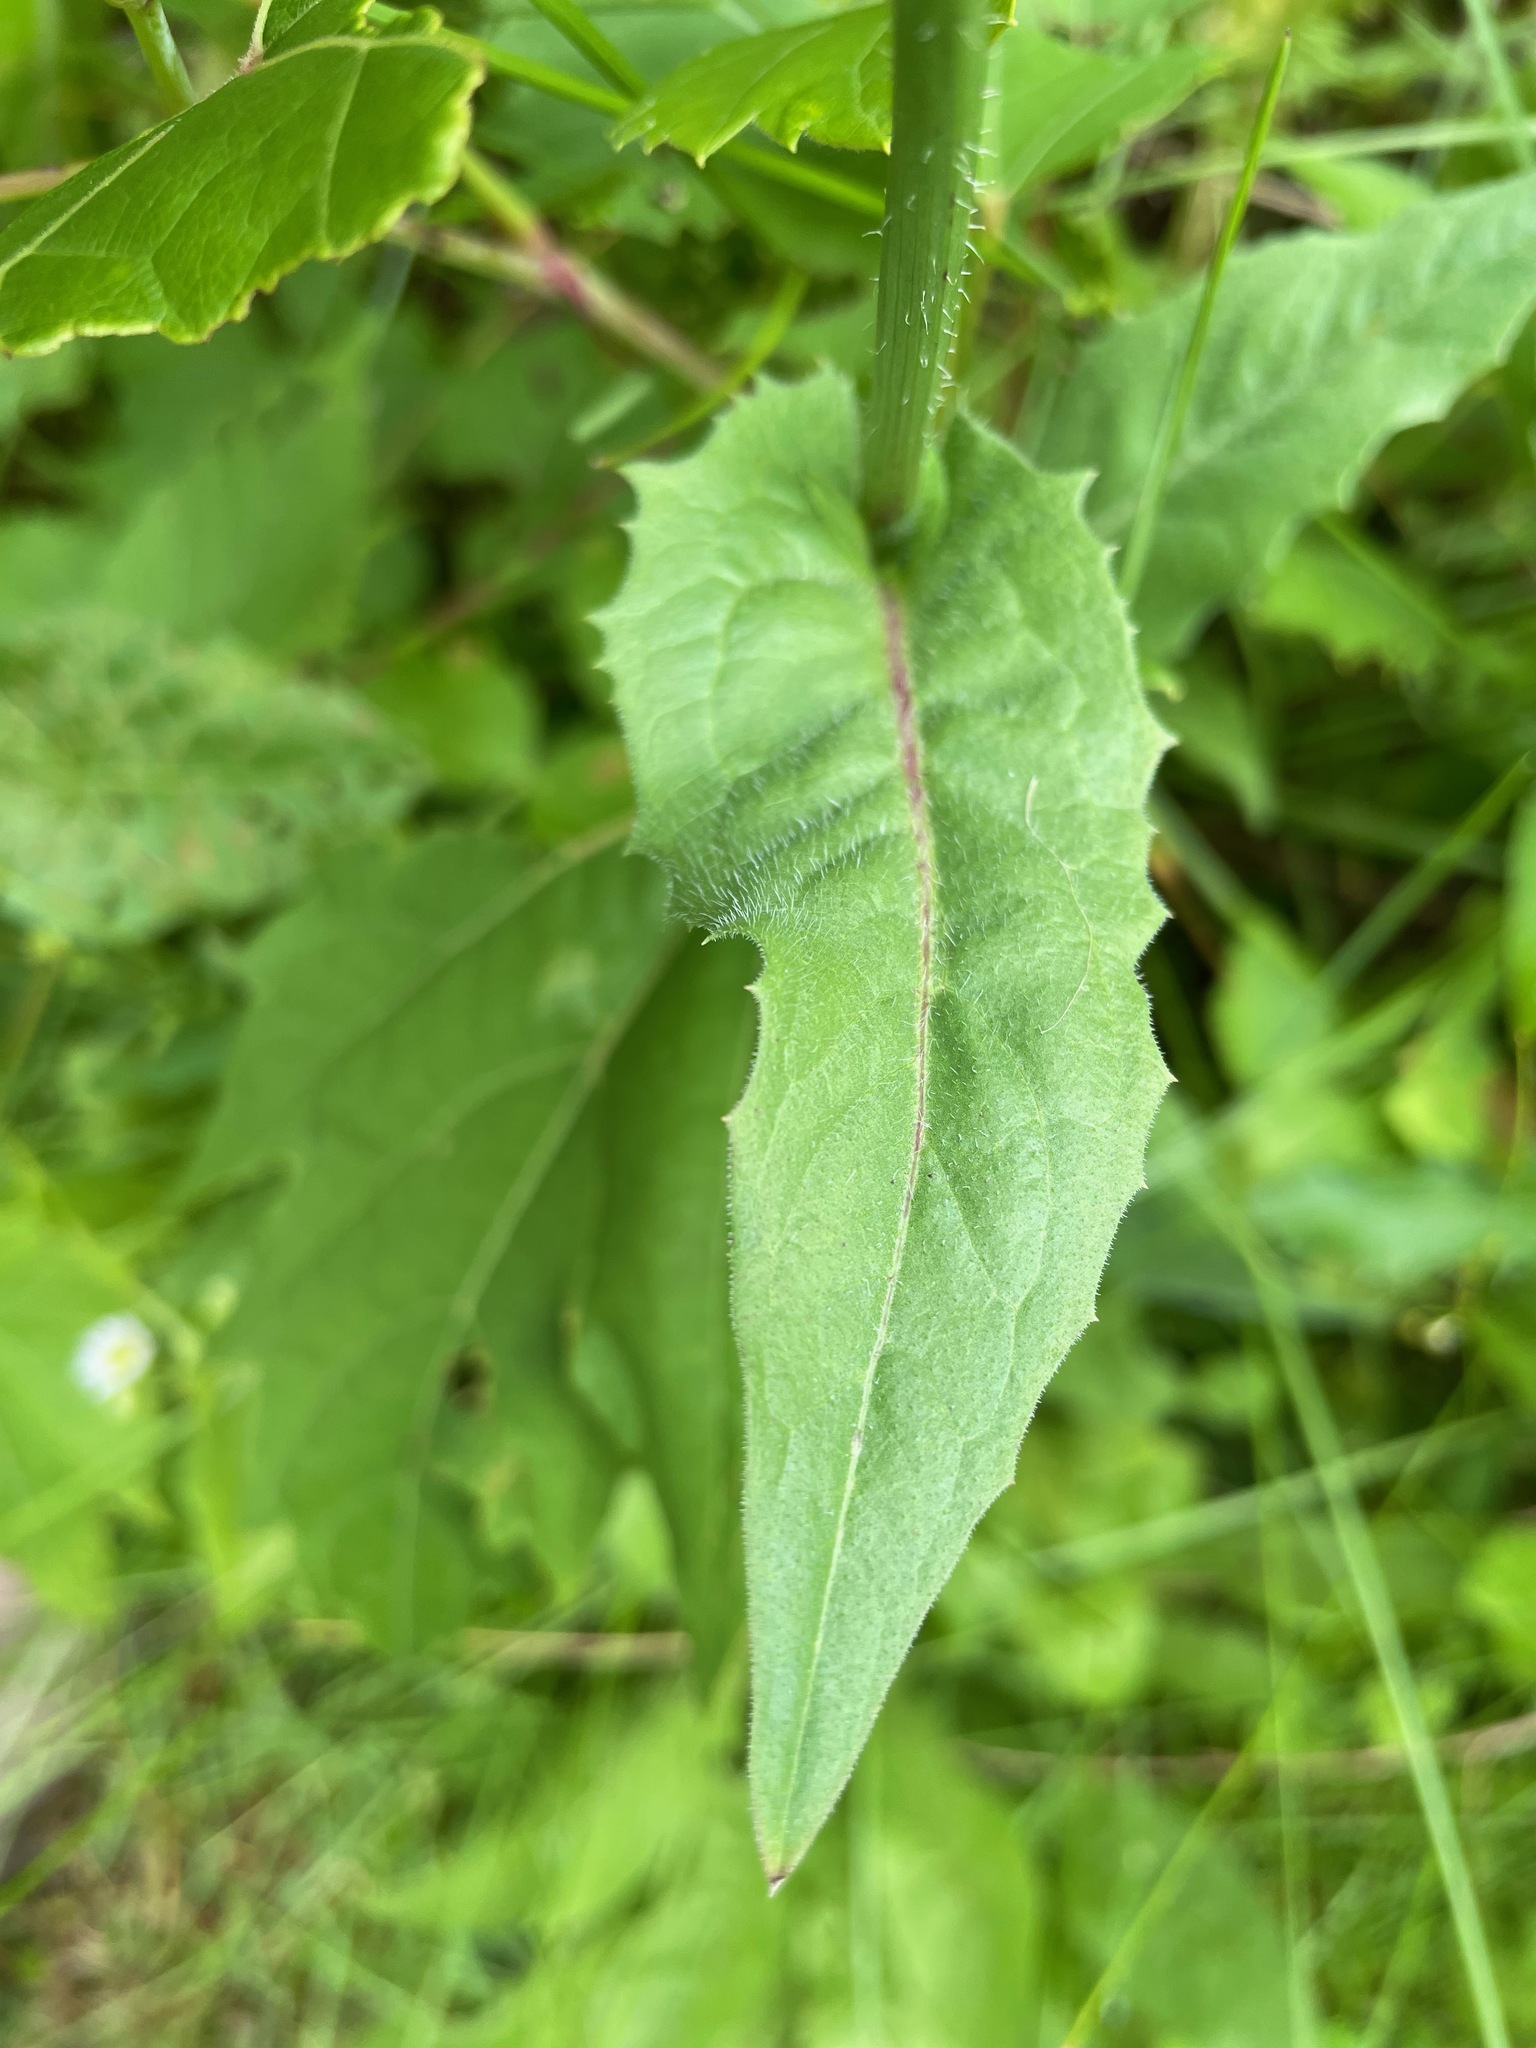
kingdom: Plantae
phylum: Tracheophyta
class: Magnoliopsida
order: Asterales
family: Asteraceae
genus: Cichorium
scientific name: Cichorium intybus
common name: Chicory
